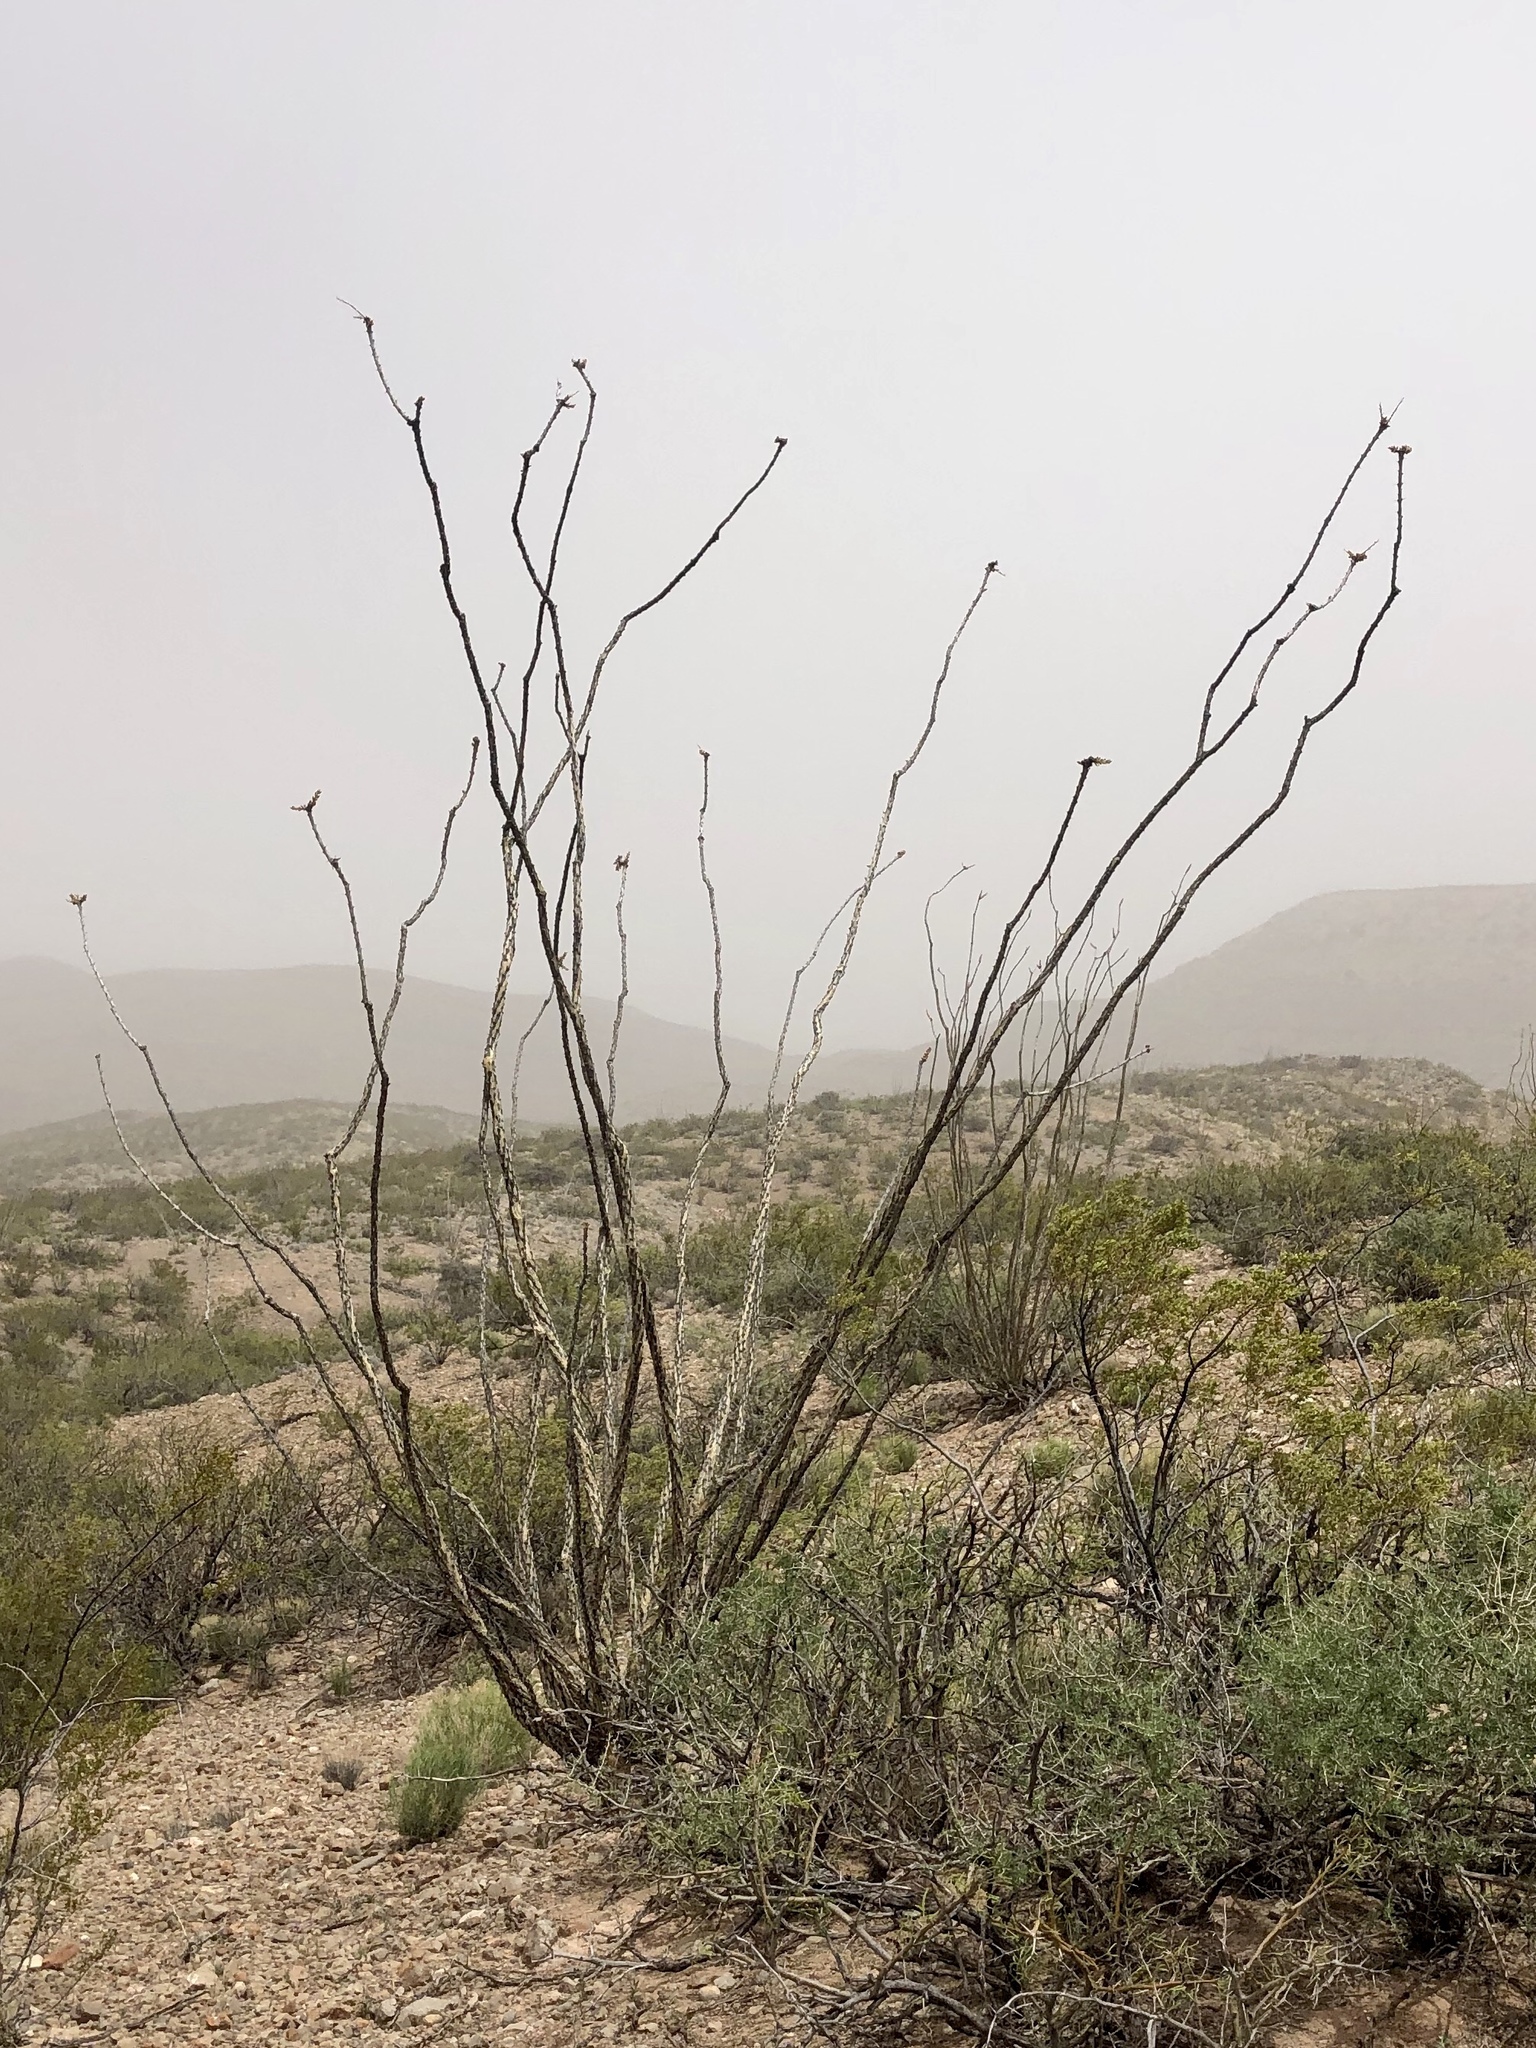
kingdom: Plantae
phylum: Tracheophyta
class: Magnoliopsida
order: Ericales
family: Fouquieriaceae
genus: Fouquieria
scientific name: Fouquieria splendens
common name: Vine-cactus
